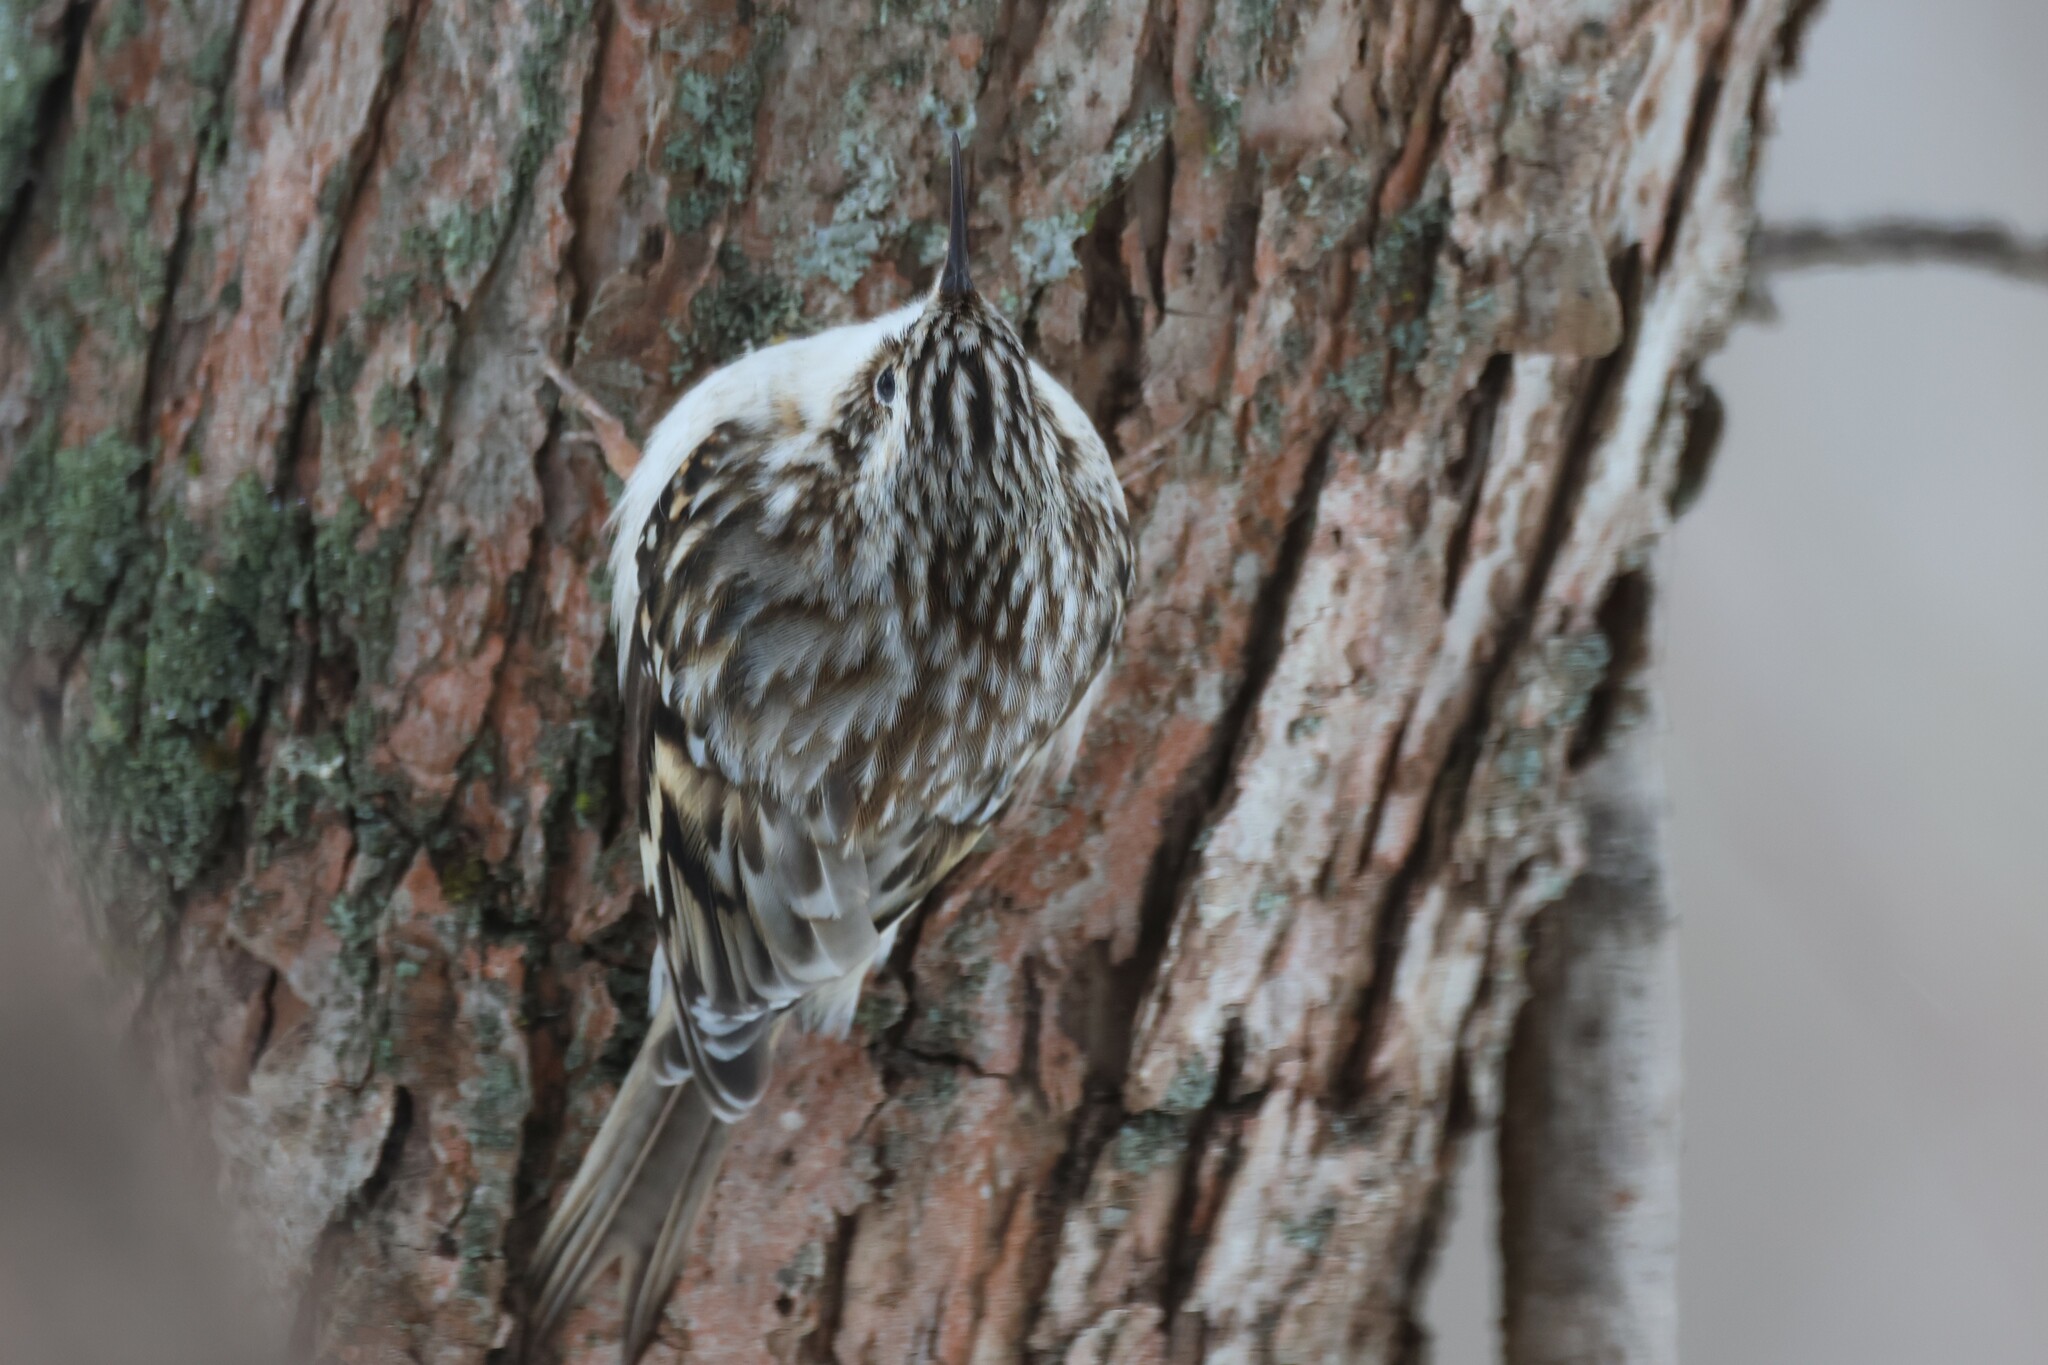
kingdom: Animalia
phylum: Chordata
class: Aves
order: Passeriformes
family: Certhiidae
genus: Certhia
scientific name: Certhia americana
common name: Brown creeper
